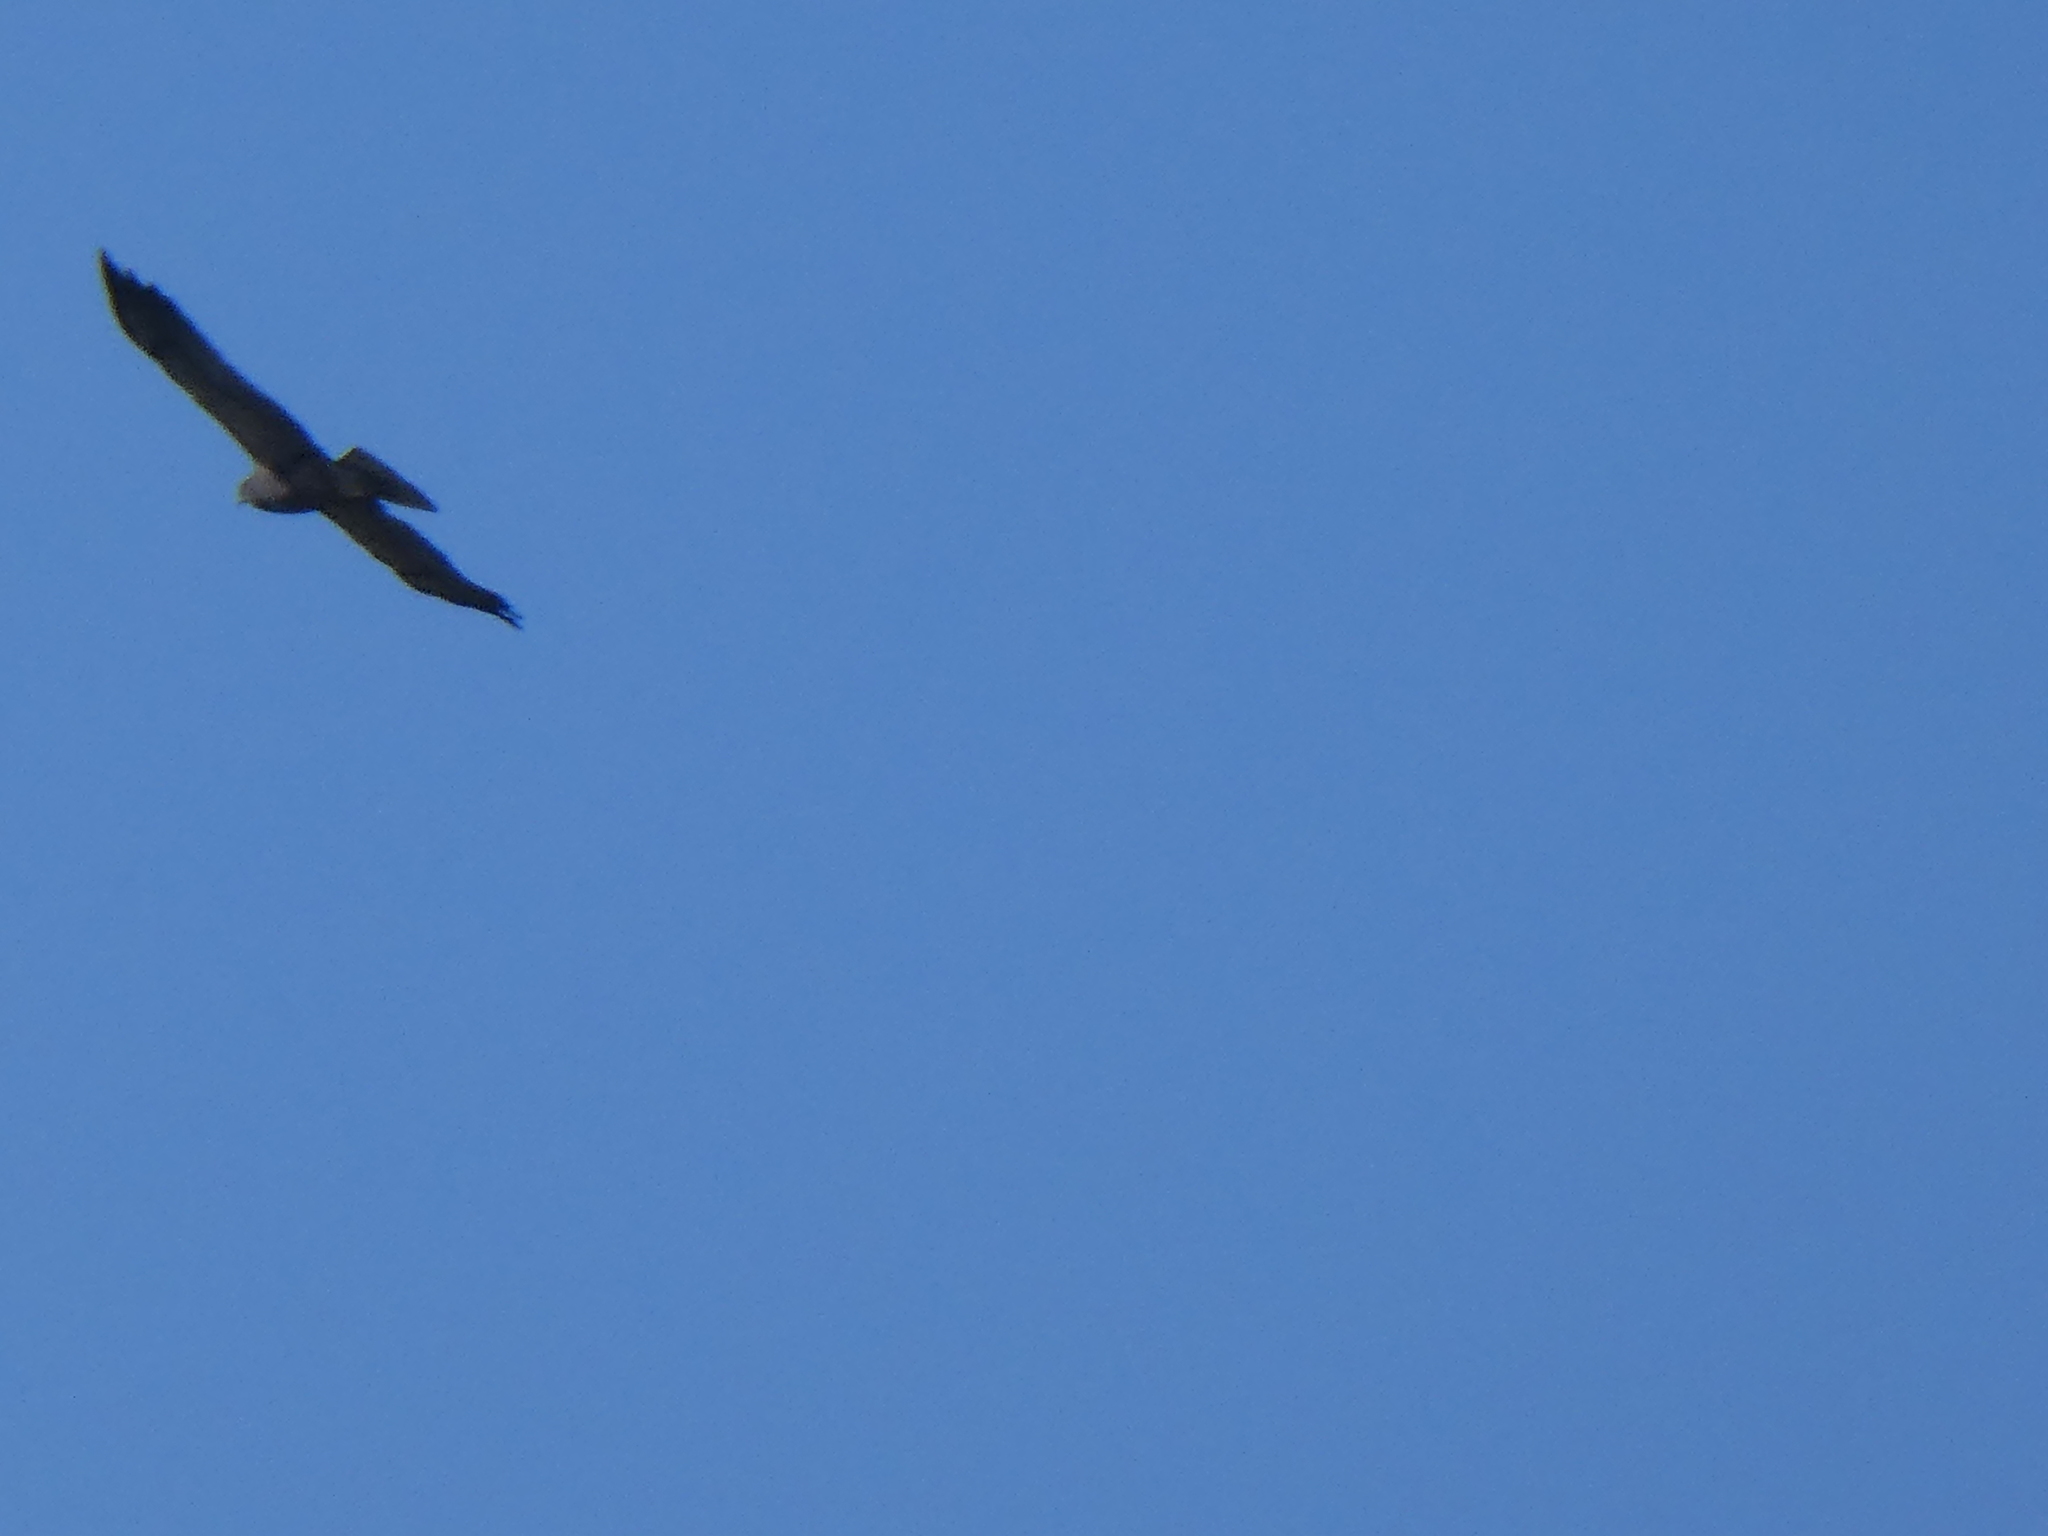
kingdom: Animalia
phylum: Chordata
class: Aves
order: Accipitriformes
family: Accipitridae
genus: Buteo
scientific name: Buteo swainsoni
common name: Swainson's hawk
